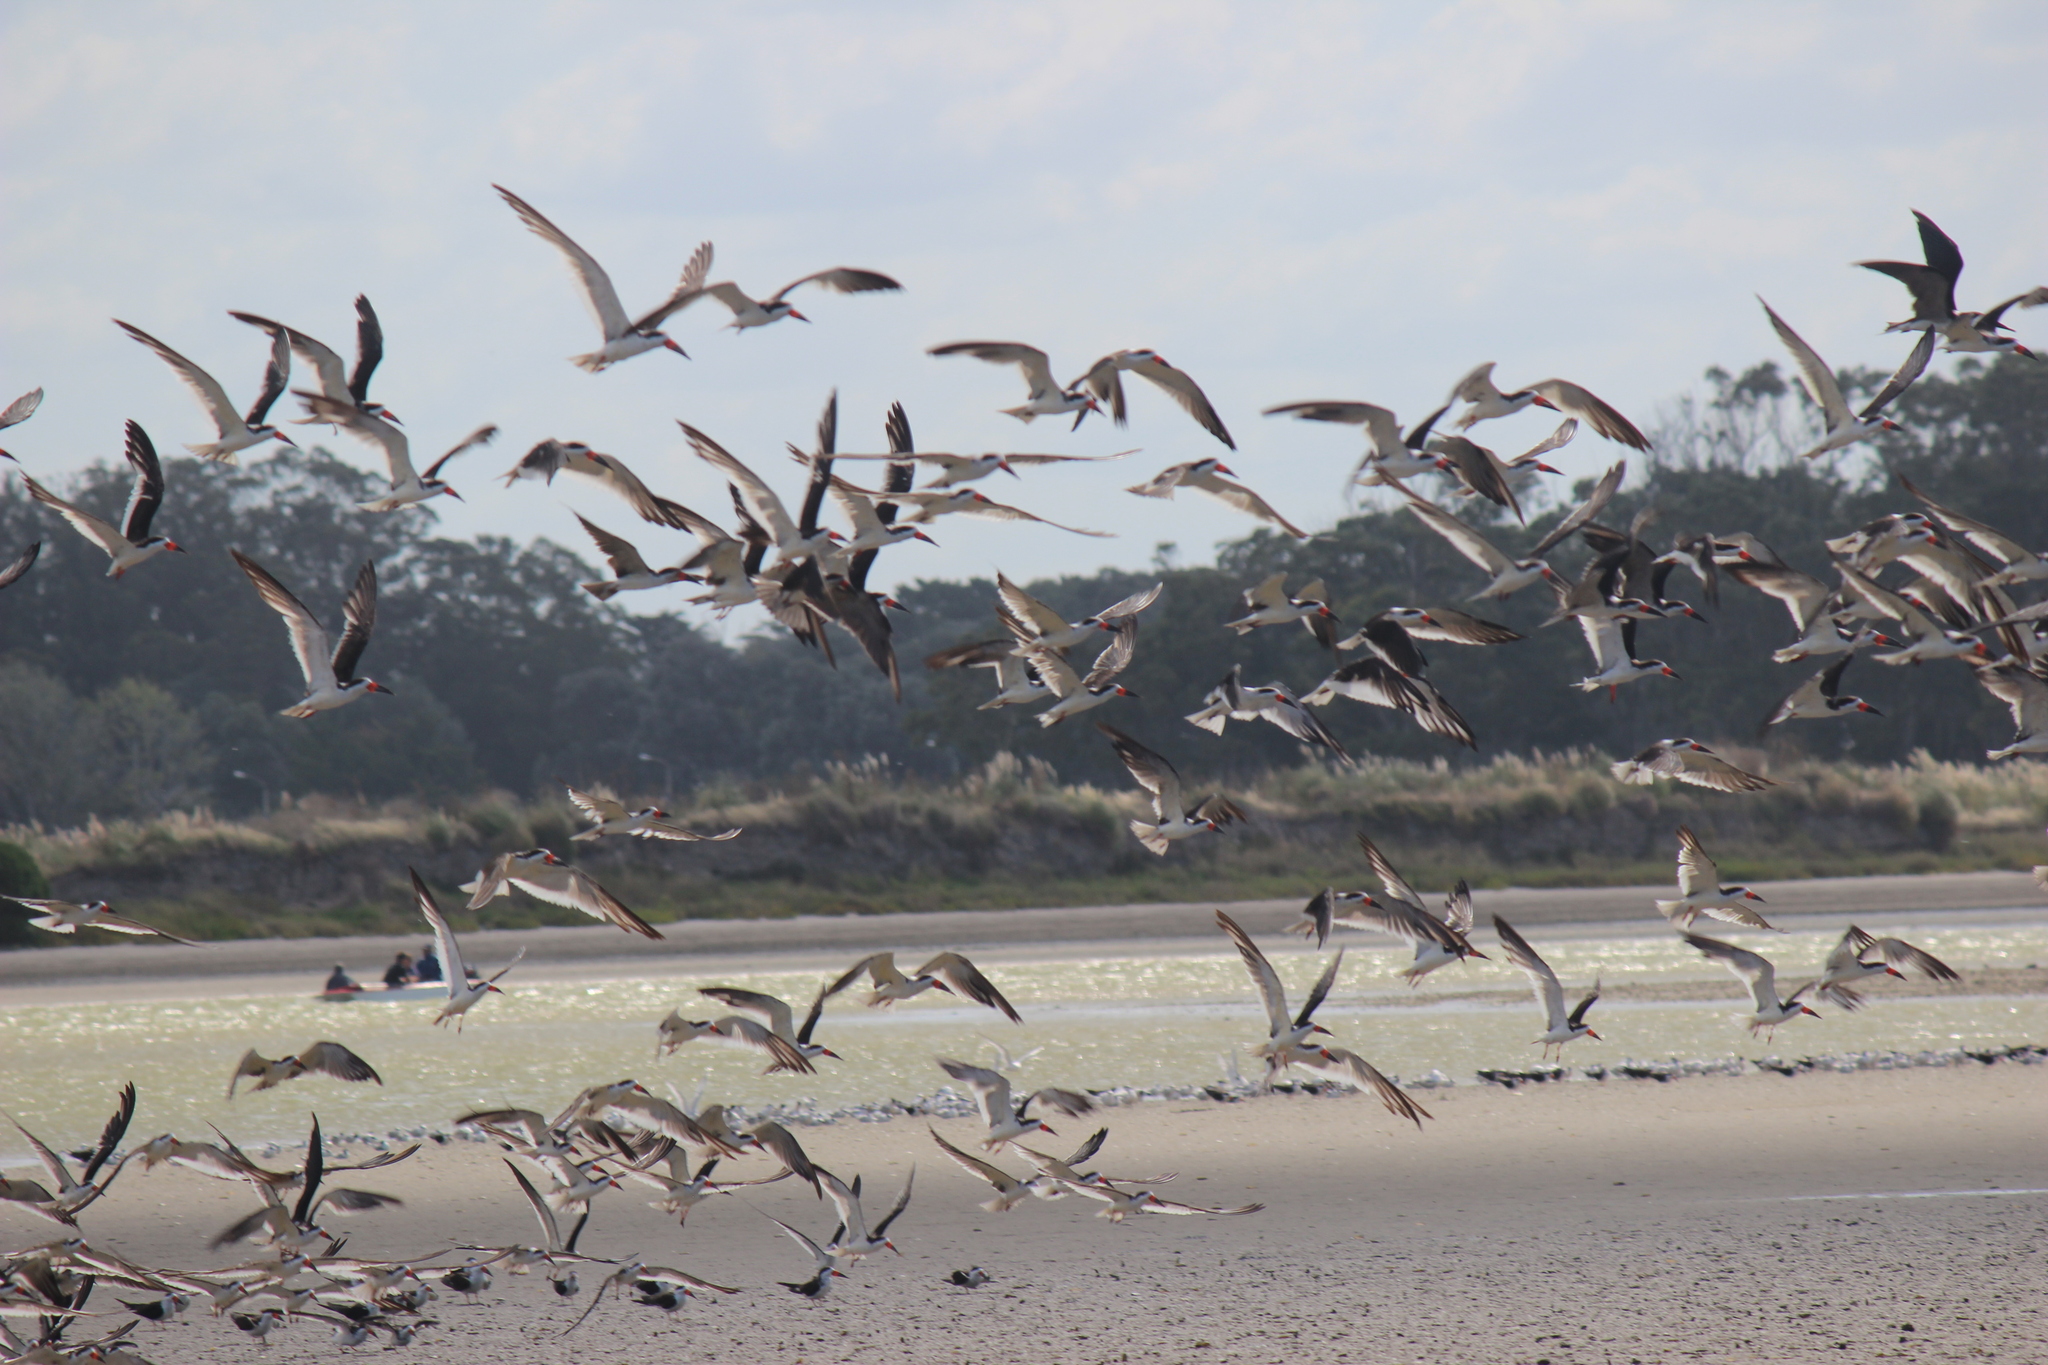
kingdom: Animalia
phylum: Chordata
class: Aves
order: Charadriiformes
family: Laridae
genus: Rynchops
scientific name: Rynchops niger
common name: Black skimmer
